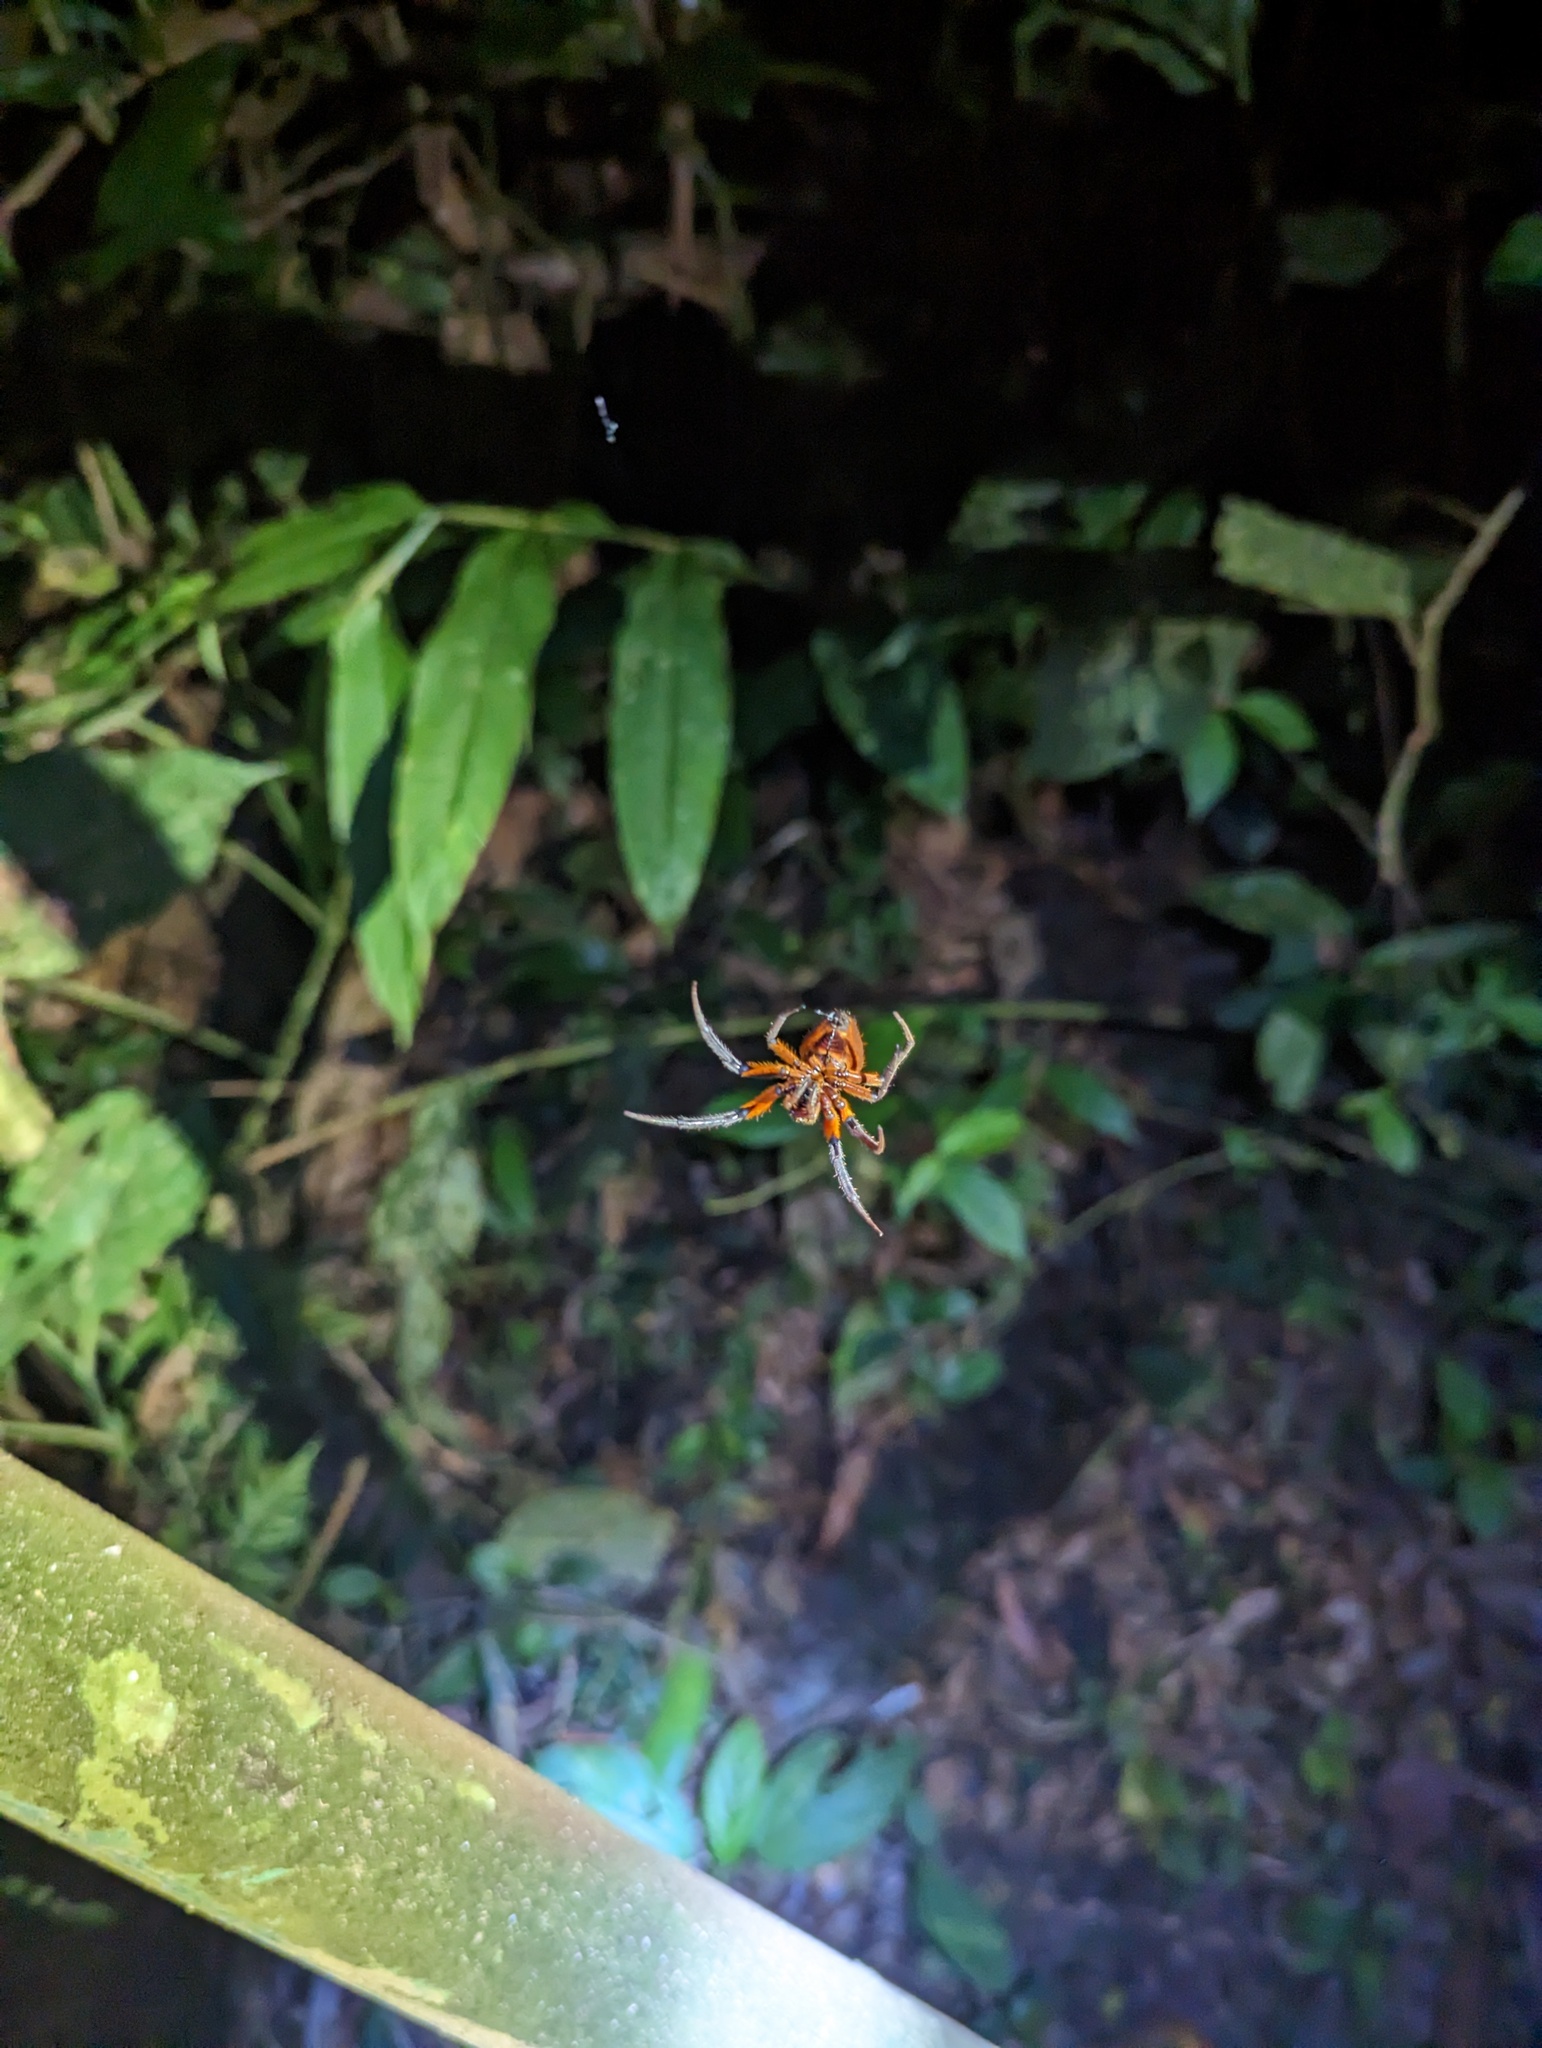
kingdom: Animalia
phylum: Arthropoda
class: Arachnida
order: Araneae
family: Araneidae
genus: Eriophora
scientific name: Eriophora fuliginea
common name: Orb weavers
